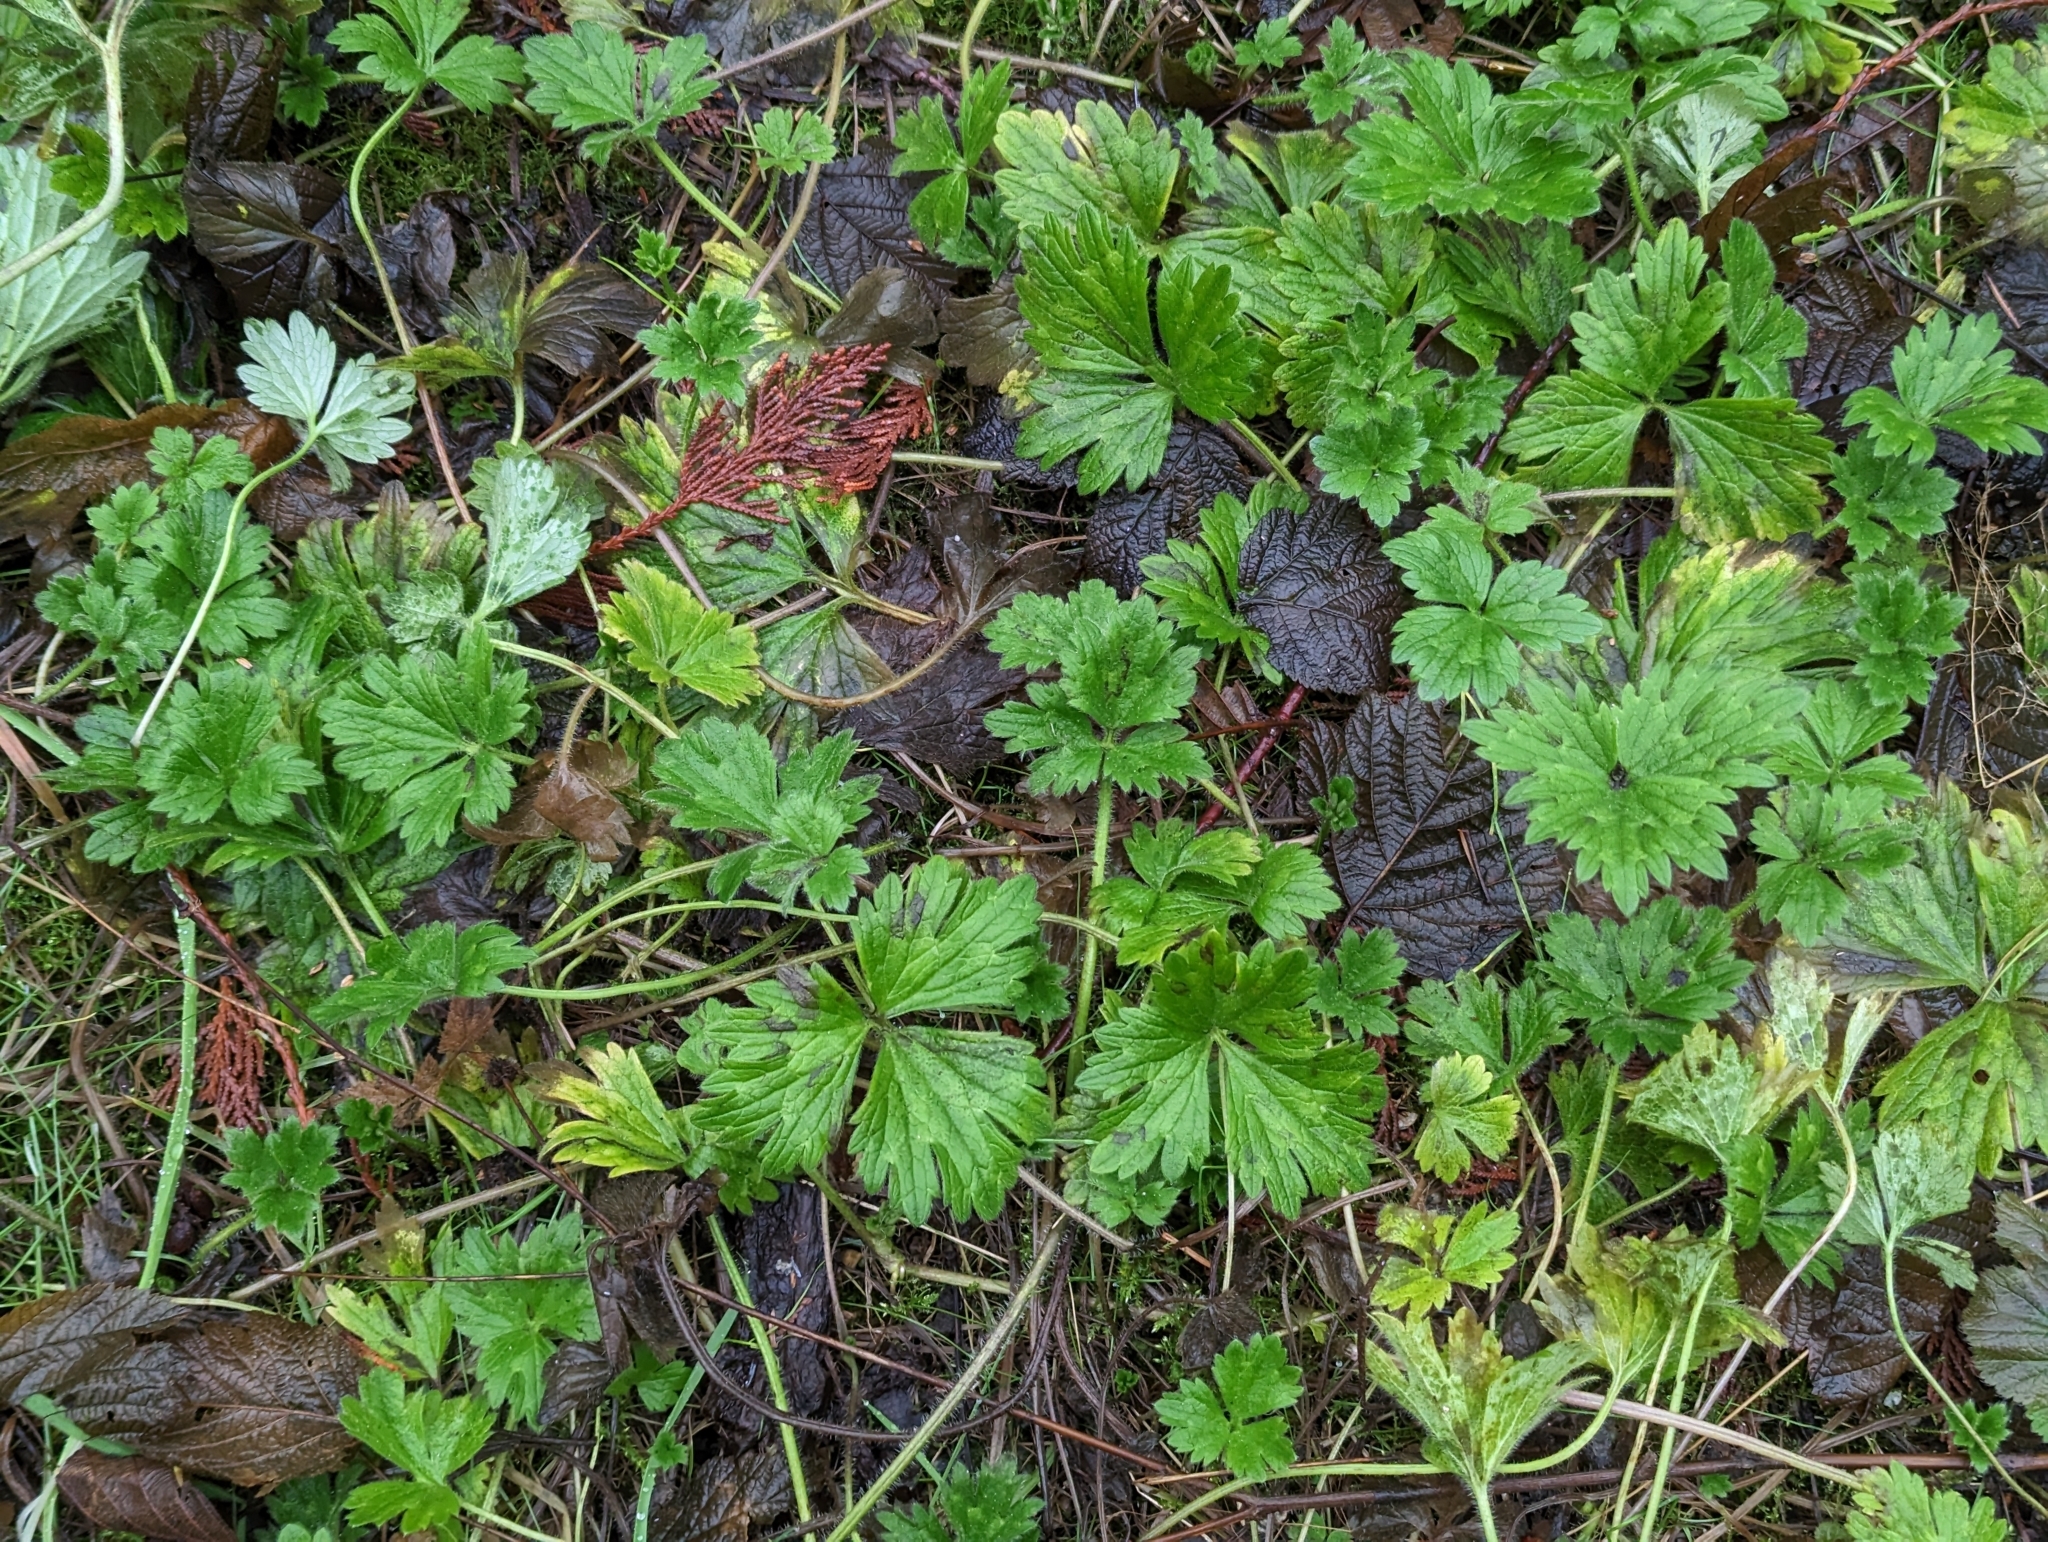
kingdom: Plantae
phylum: Tracheophyta
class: Magnoliopsida
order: Ranunculales
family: Ranunculaceae
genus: Ranunculus
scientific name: Ranunculus repens
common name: Creeping buttercup
